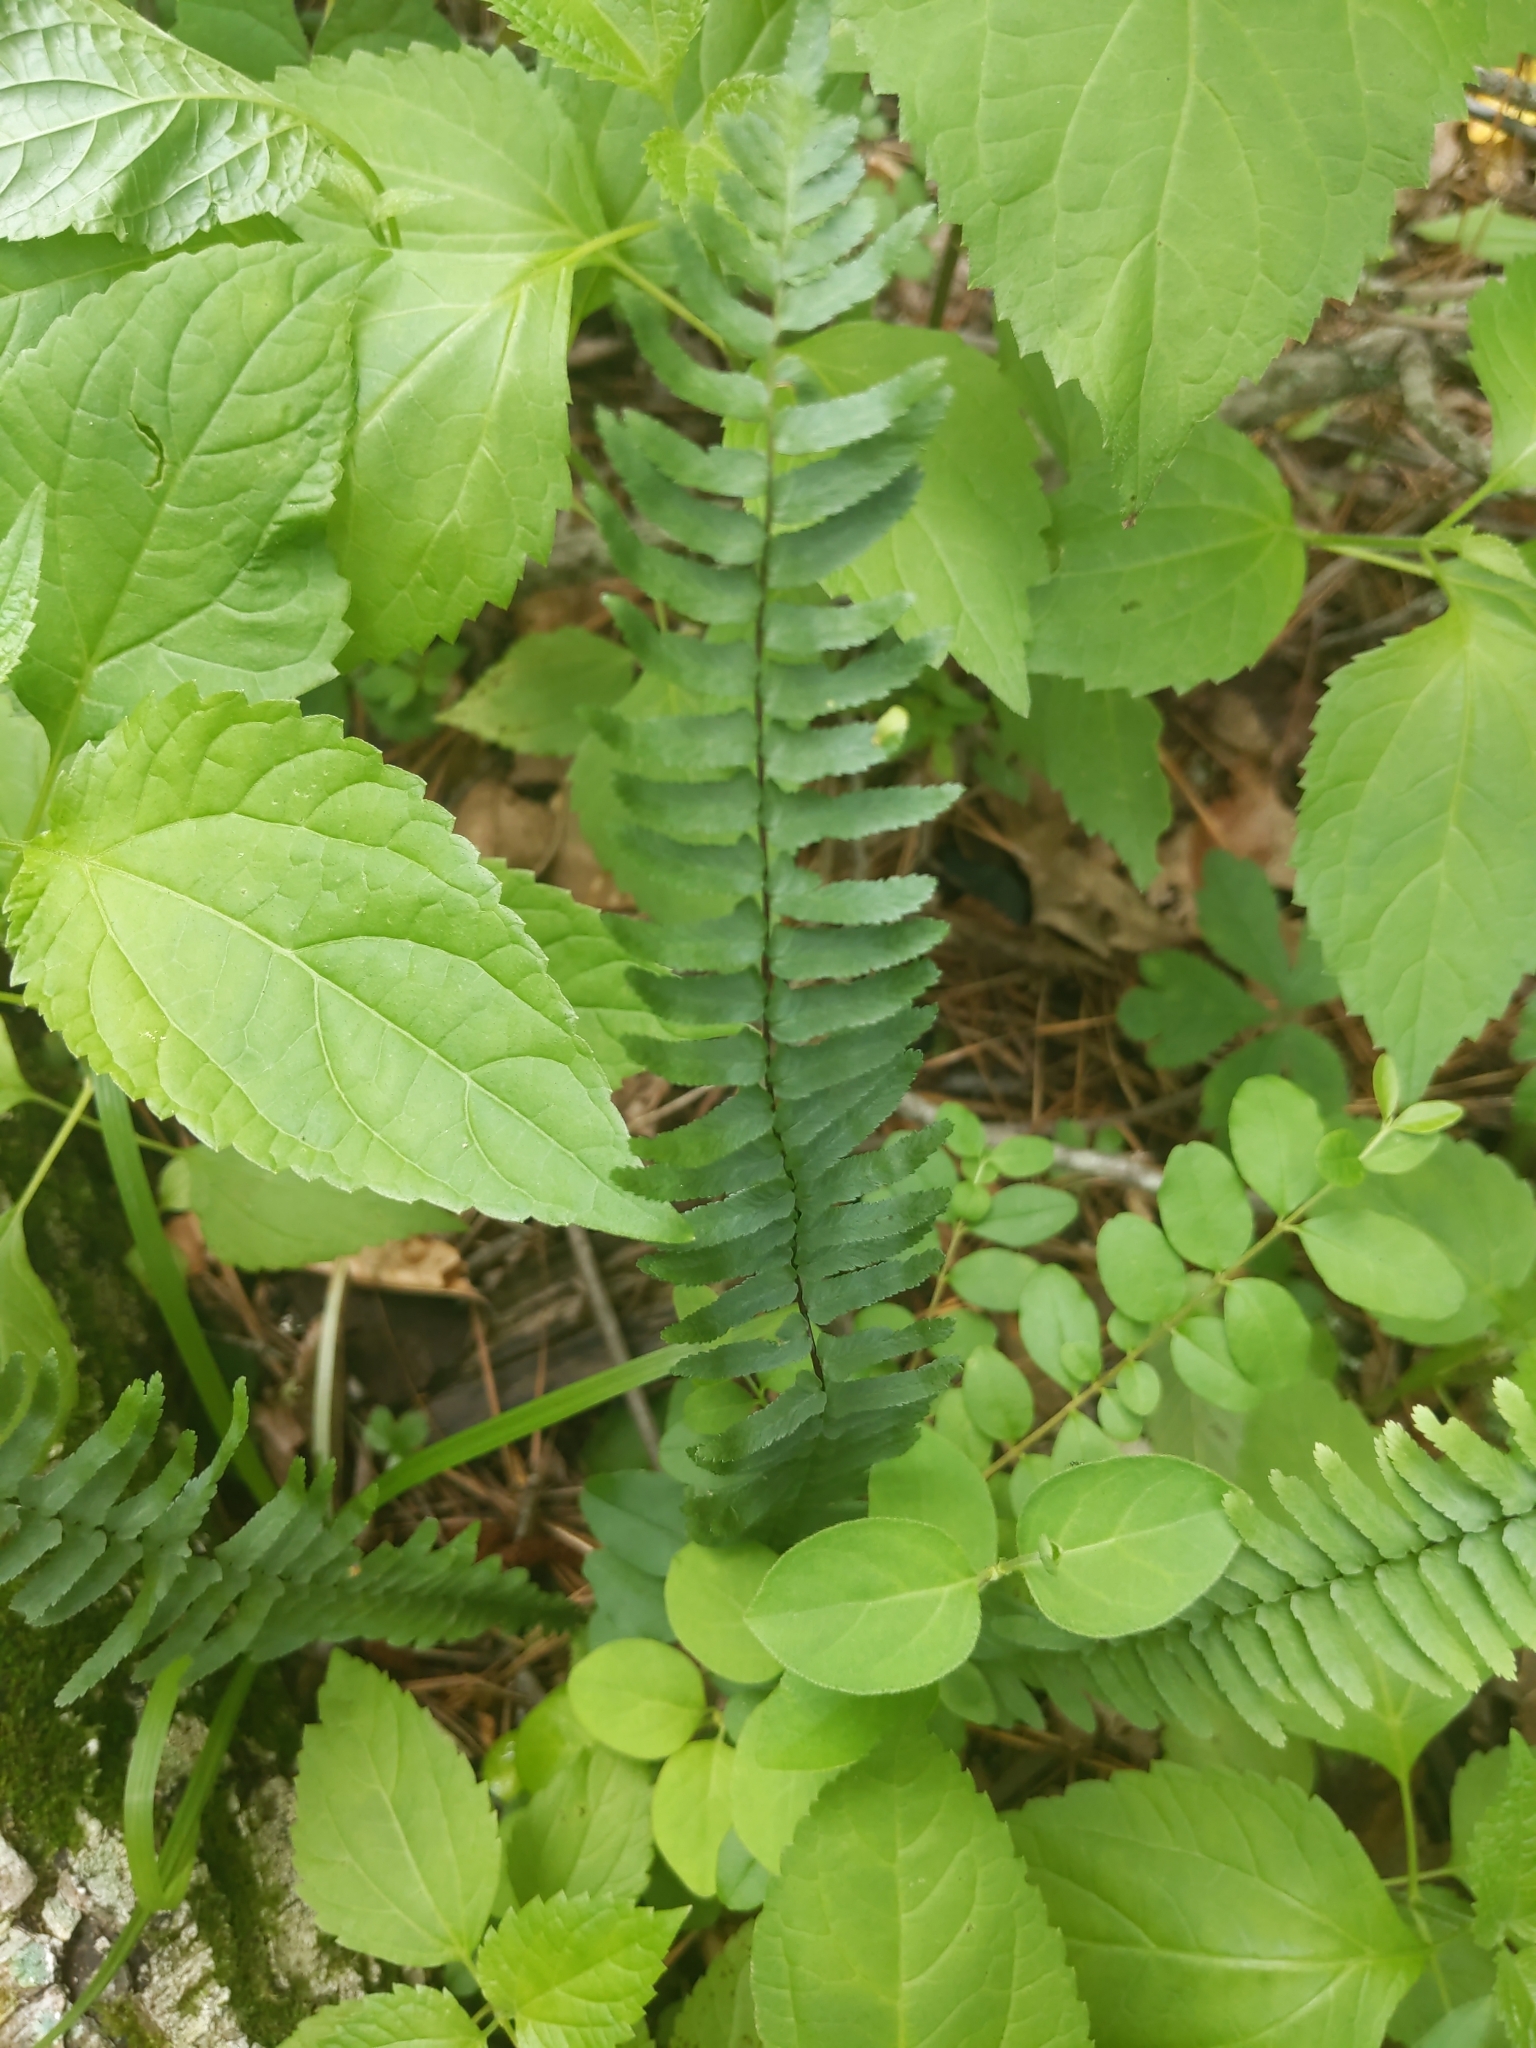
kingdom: Plantae
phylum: Tracheophyta
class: Polypodiopsida
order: Polypodiales
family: Aspleniaceae
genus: Asplenium
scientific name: Asplenium platyneuron
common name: Ebony spleenwort
